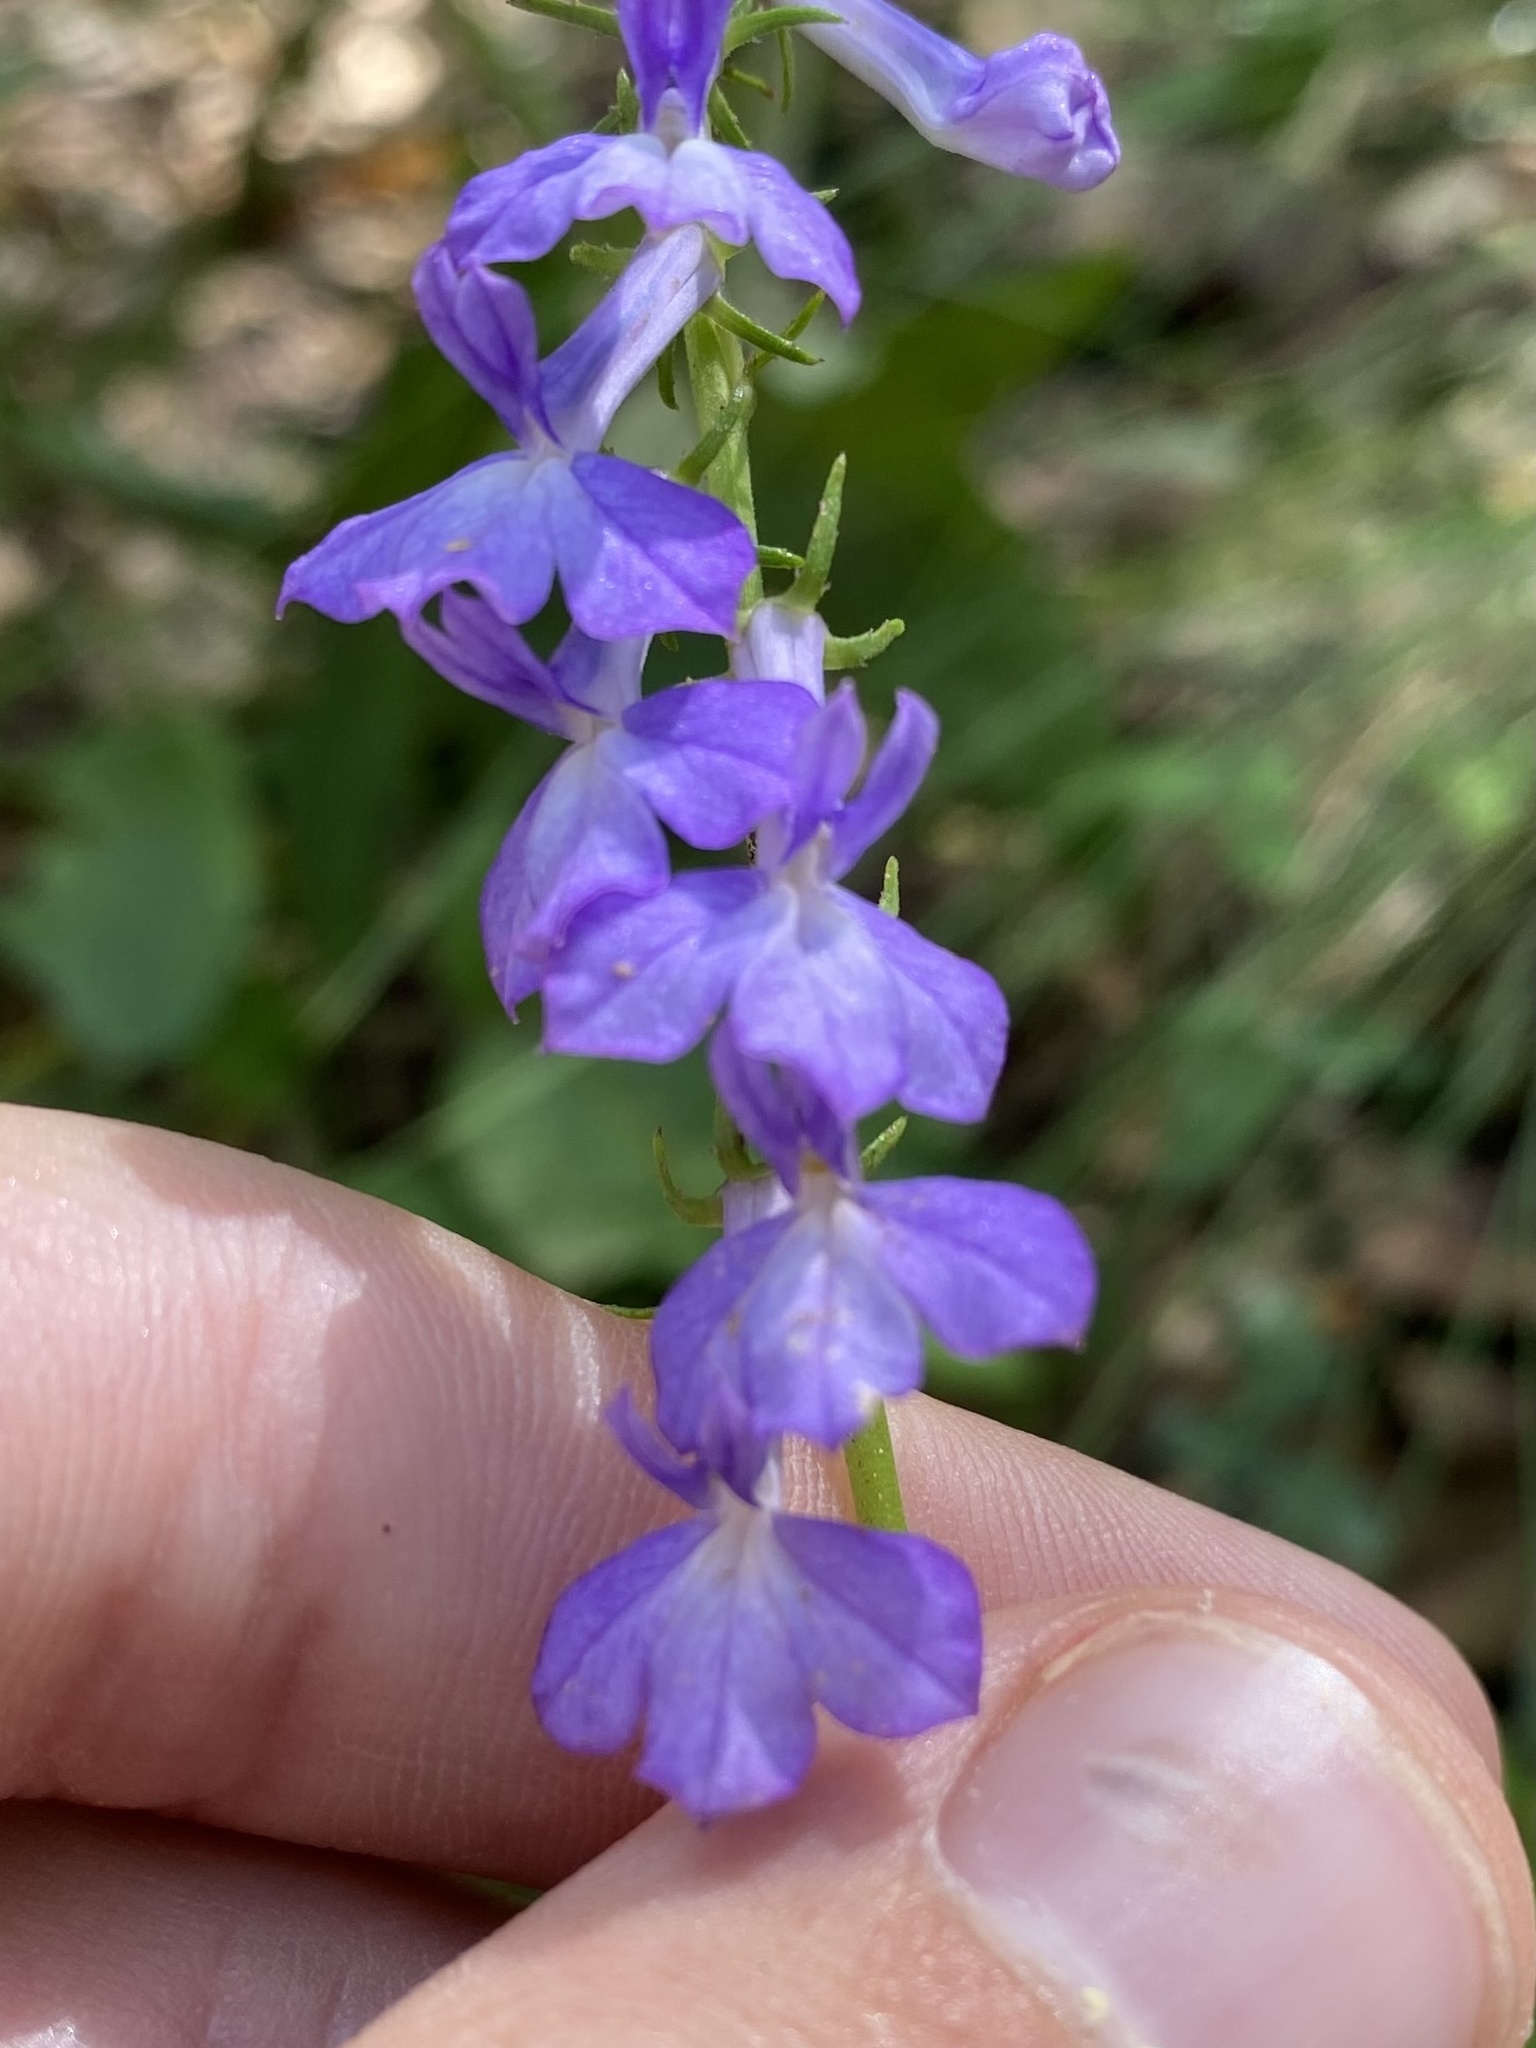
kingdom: Plantae
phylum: Tracheophyta
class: Magnoliopsida
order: Asterales
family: Campanulaceae
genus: Lobelia
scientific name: Lobelia hartwegii
